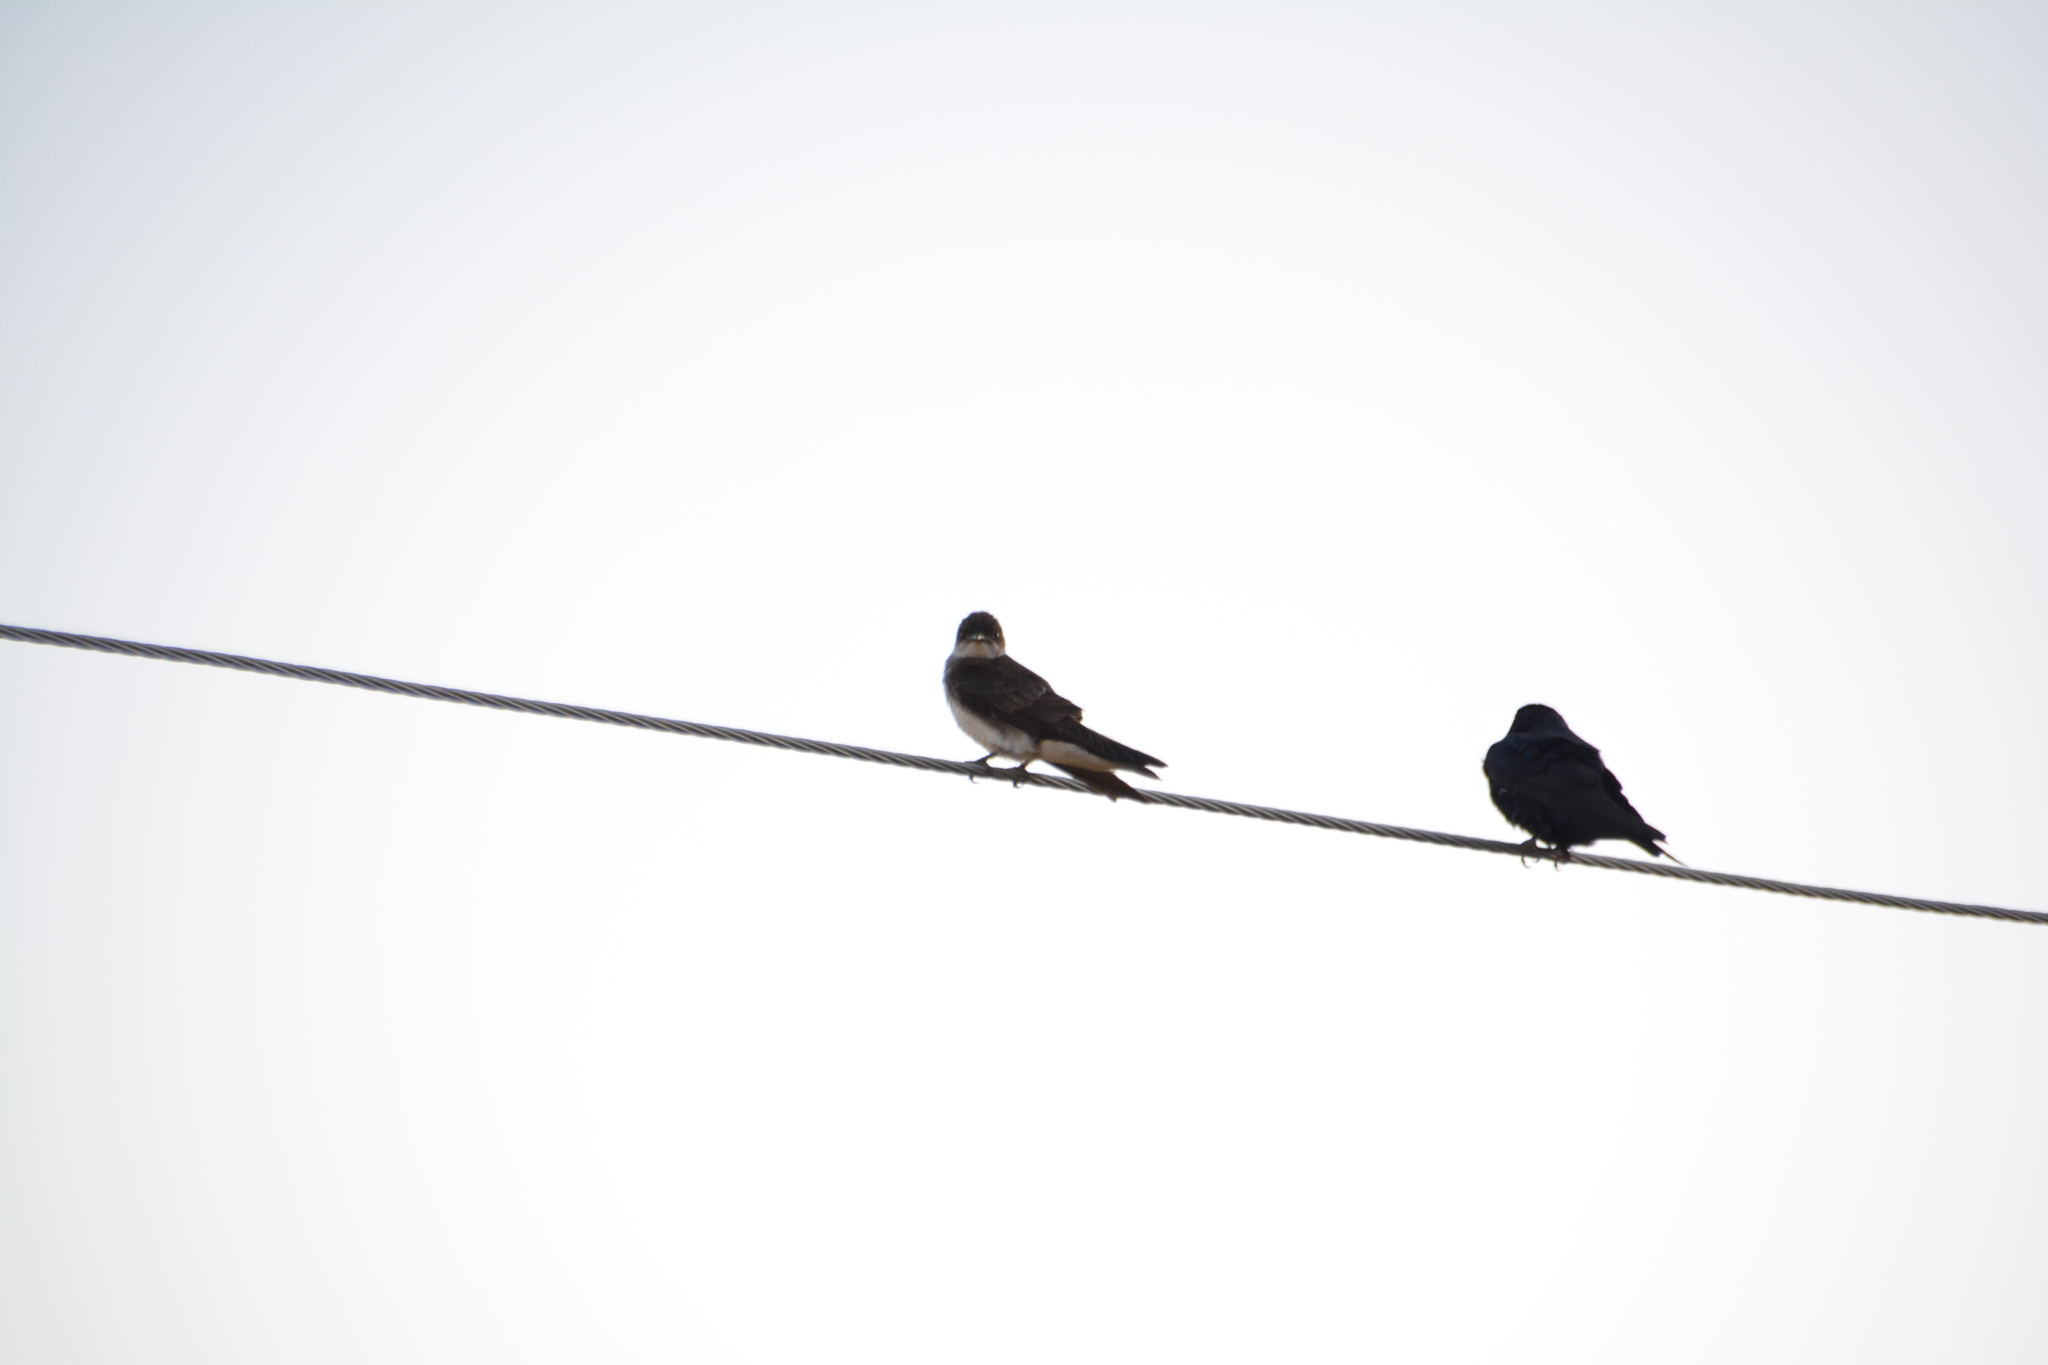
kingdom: Animalia
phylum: Chordata
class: Aves
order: Passeriformes
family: Hirundinidae
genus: Progne
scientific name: Progne tapera
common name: Brown-chested martin
